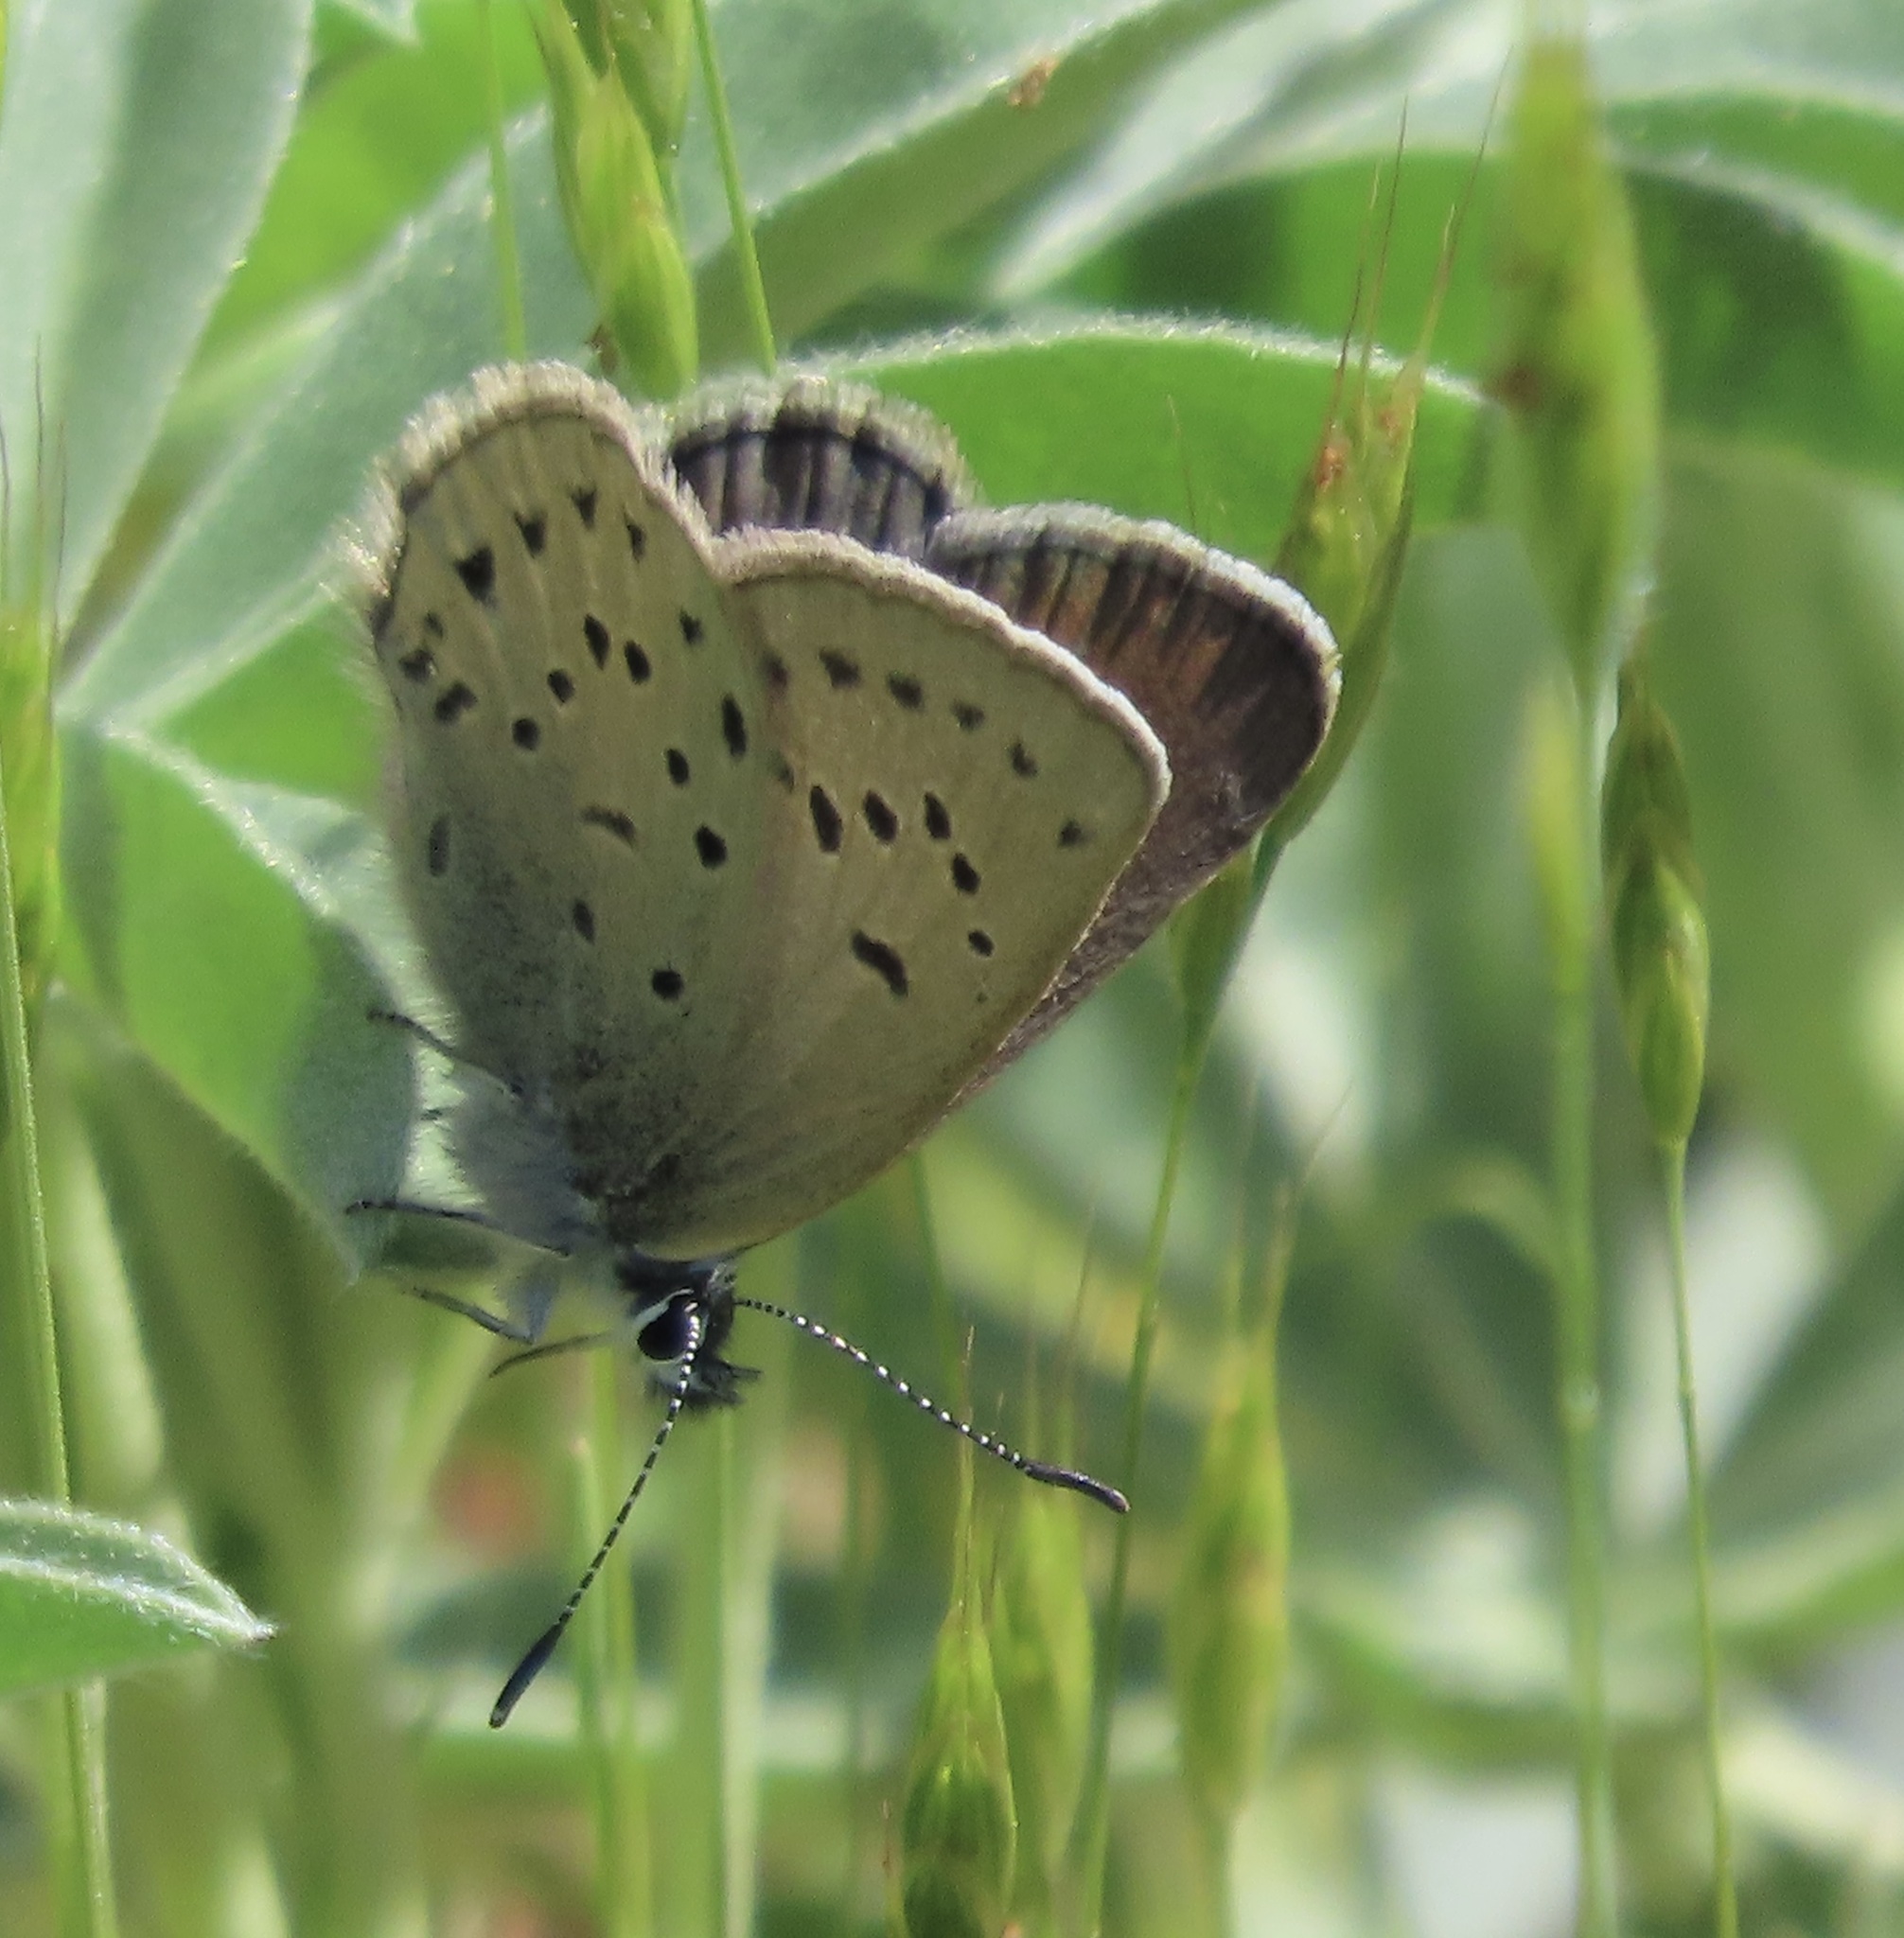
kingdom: Animalia
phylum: Arthropoda
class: Insecta
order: Lepidoptera
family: Lycaenidae
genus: Icaricia
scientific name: Icaricia icarioides
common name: Boisduval's blue
